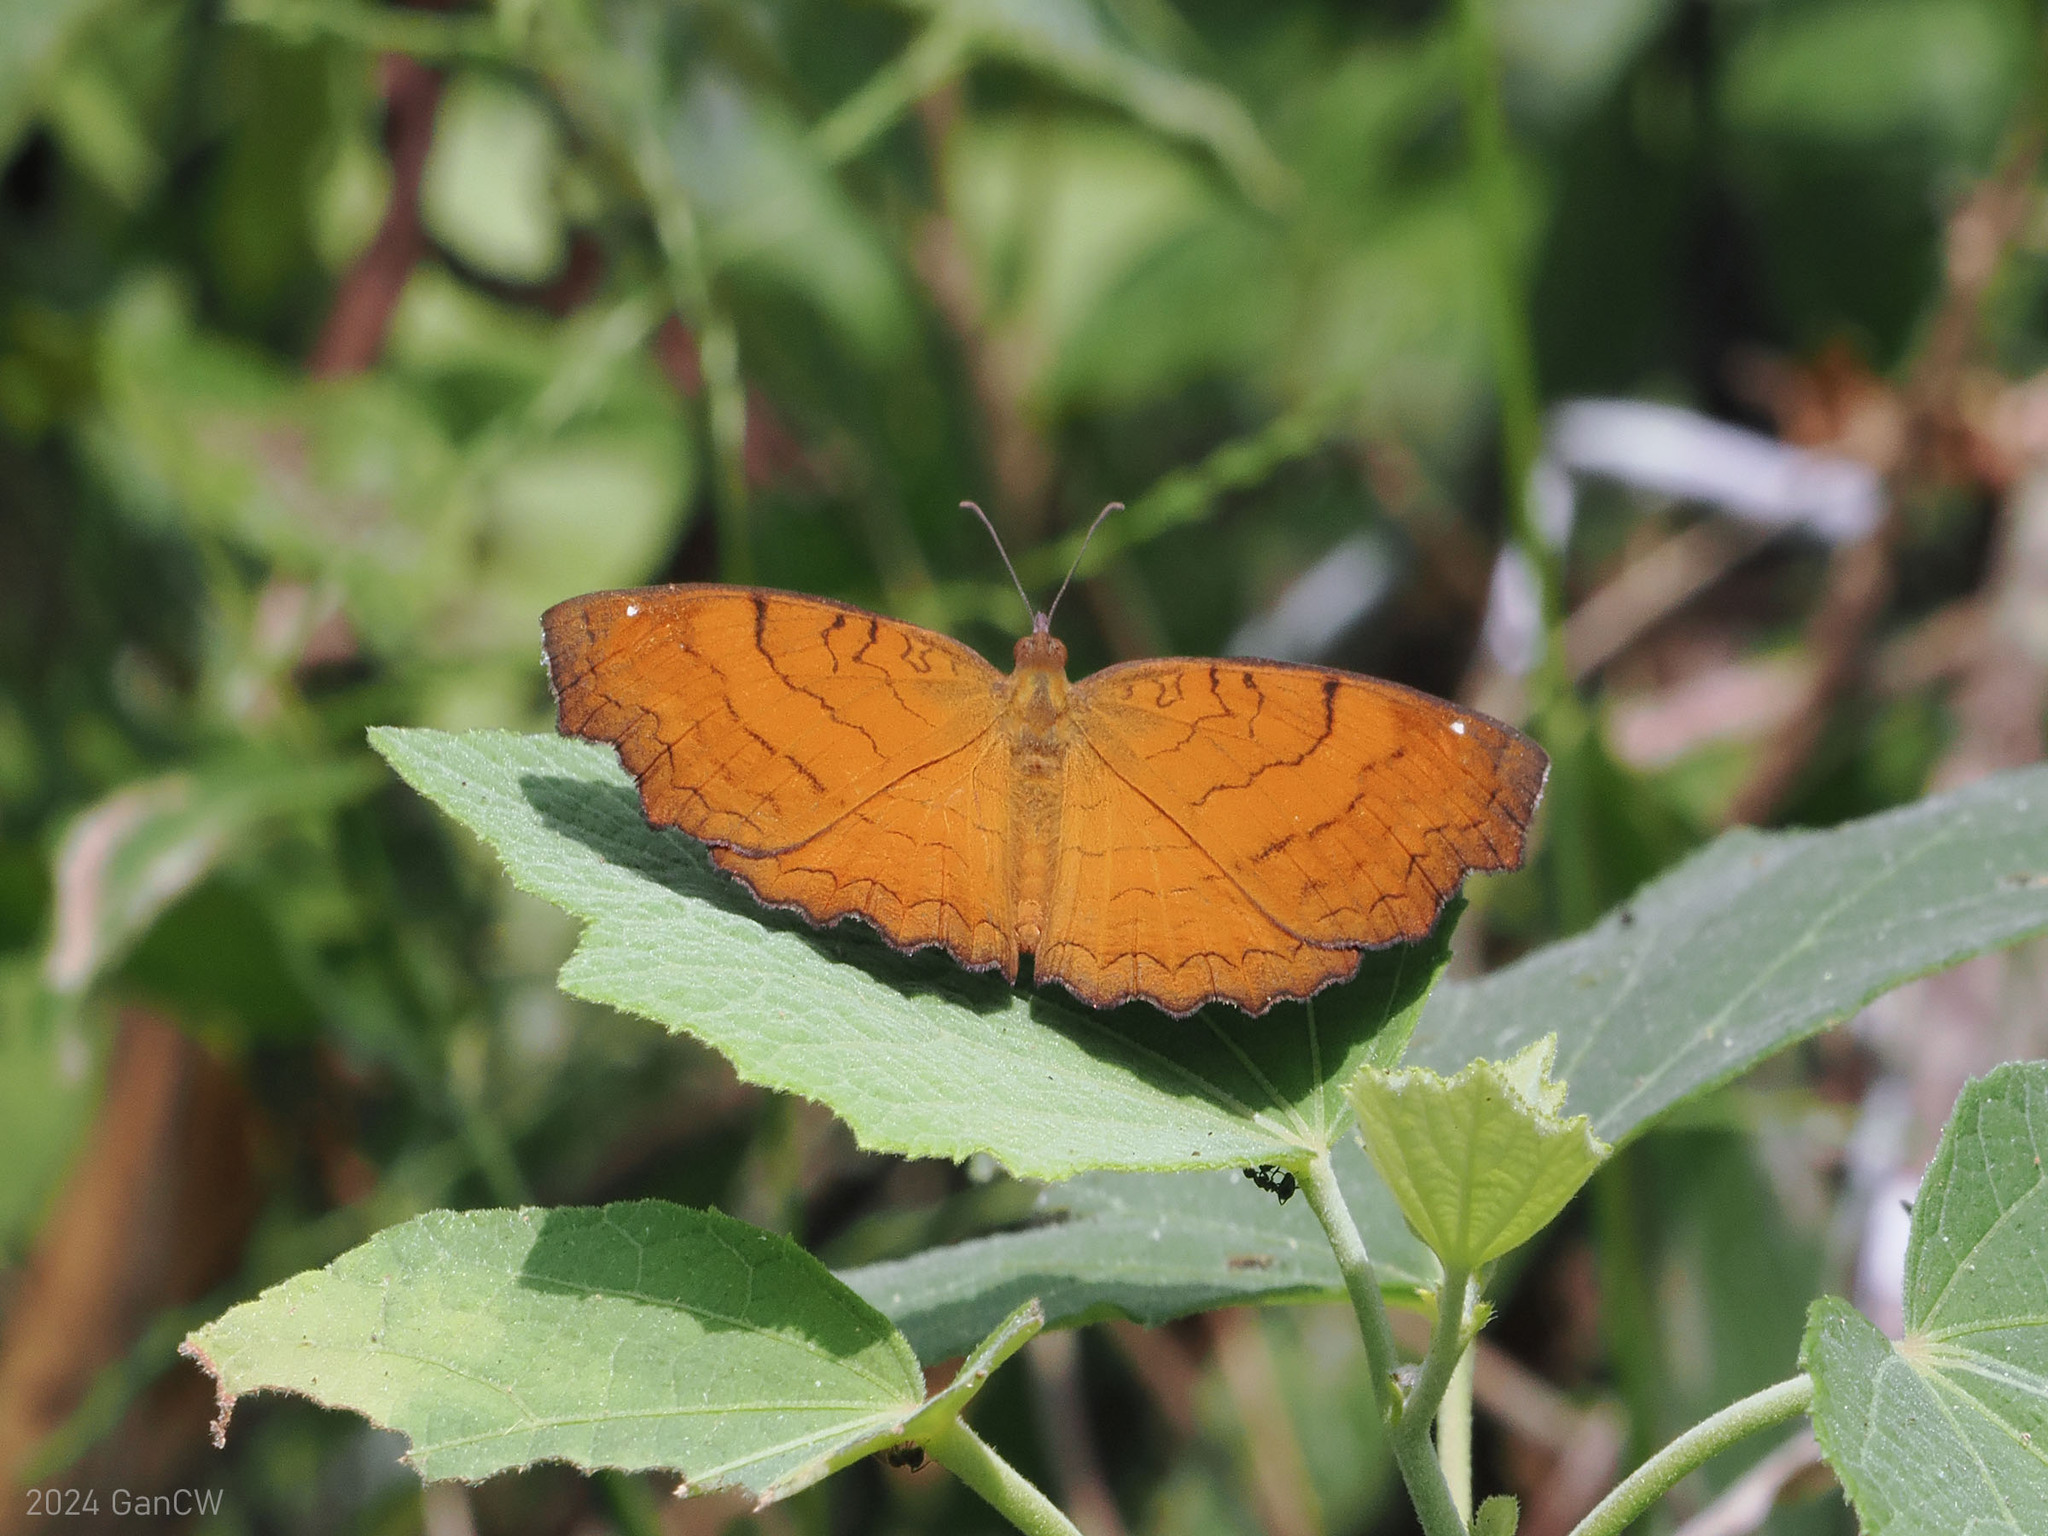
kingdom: Animalia
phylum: Arthropoda
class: Insecta
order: Lepidoptera
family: Nymphalidae
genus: Ariadne
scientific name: Ariadne ariadne
